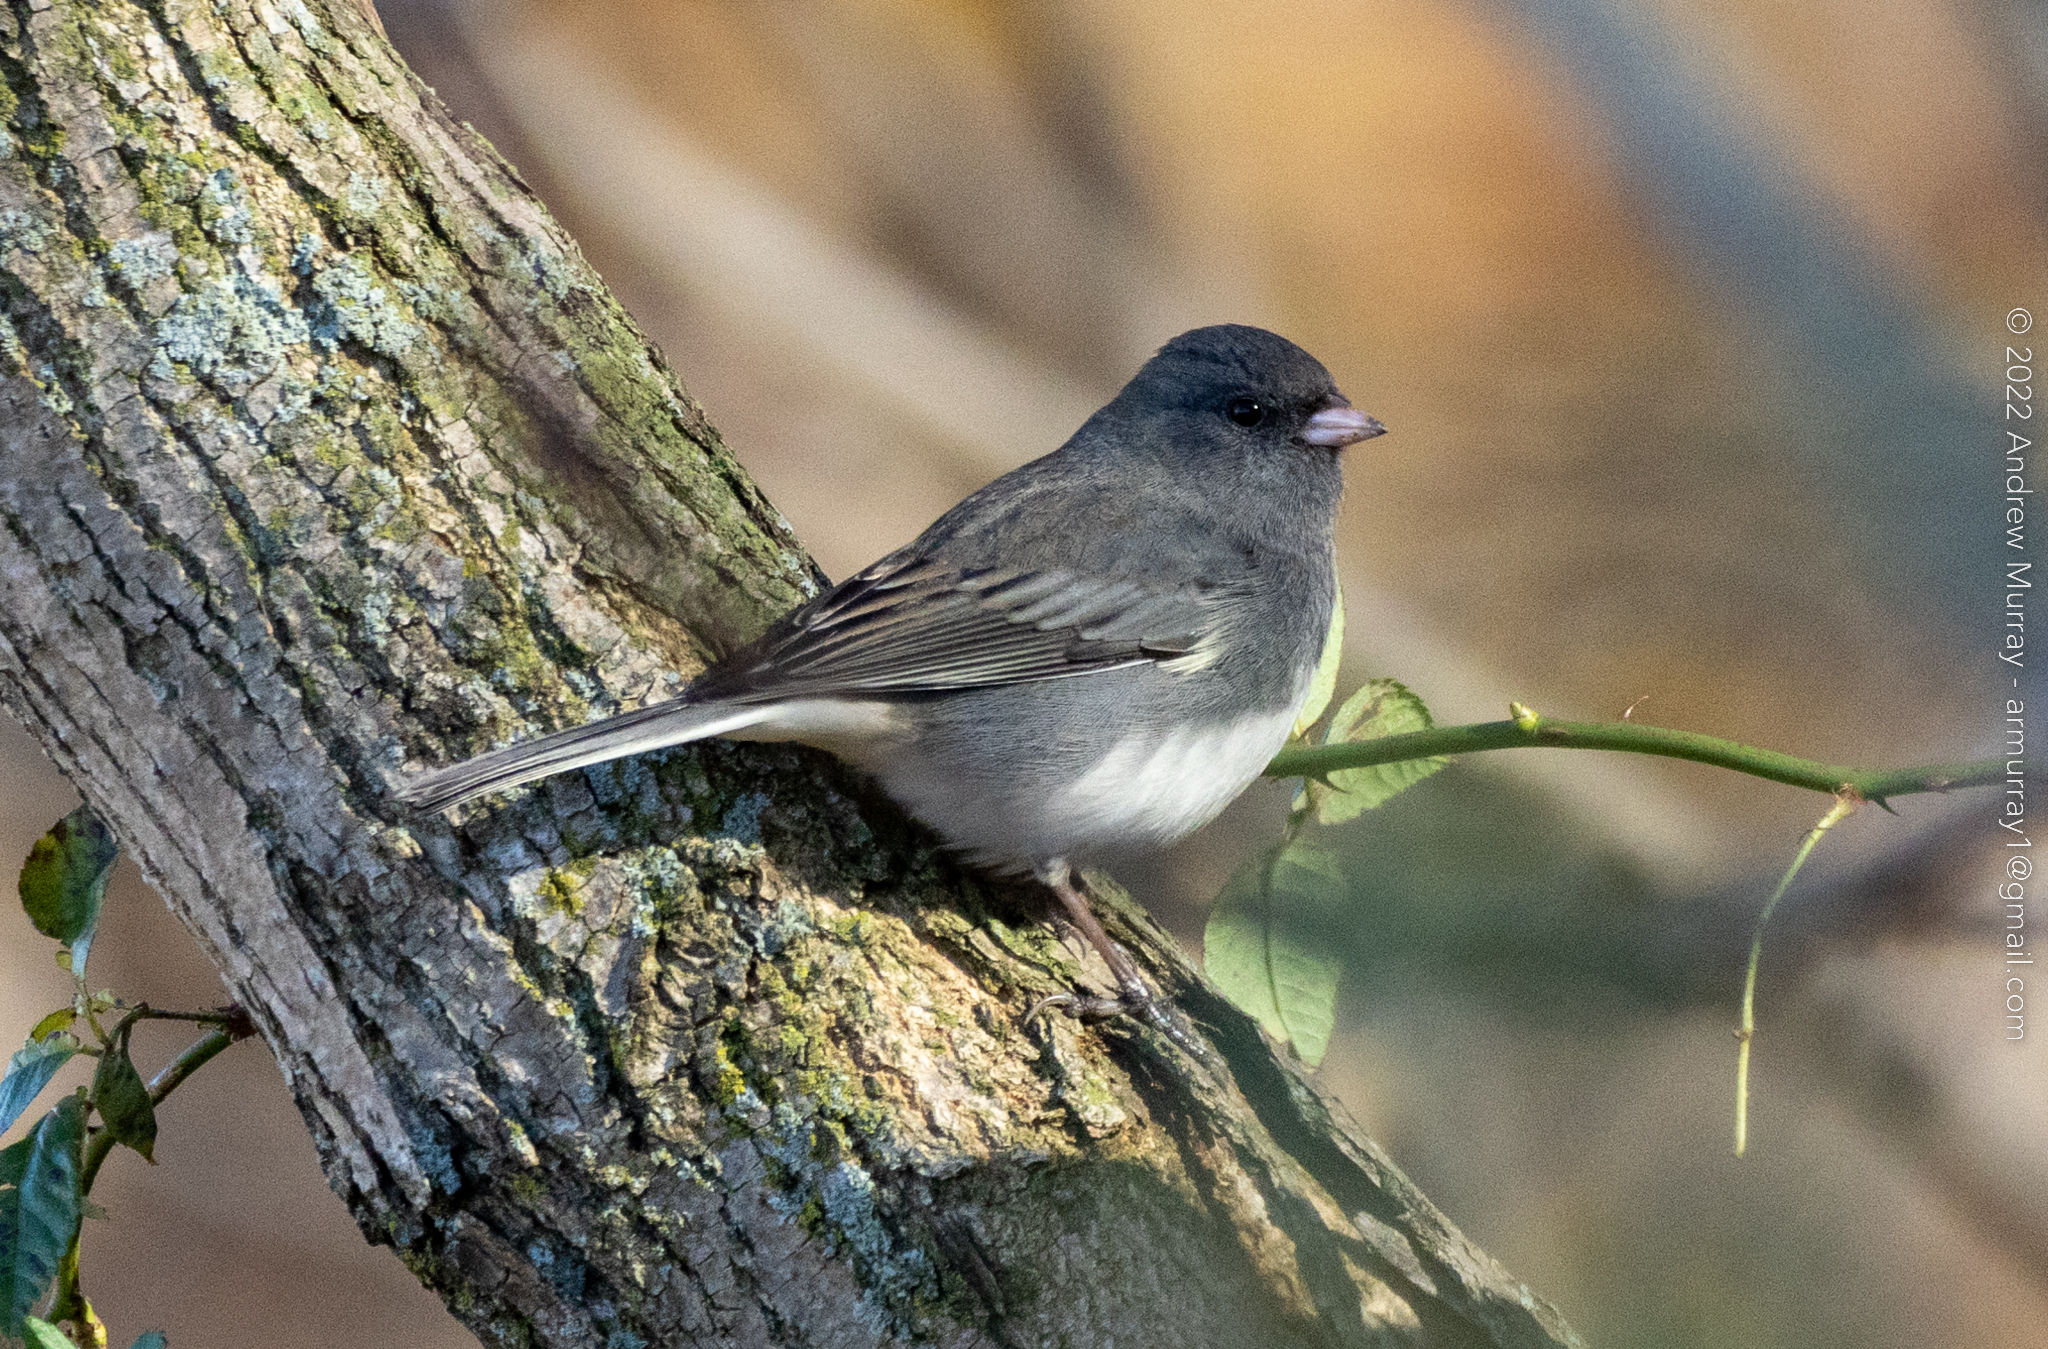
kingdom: Animalia
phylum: Chordata
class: Aves
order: Passeriformes
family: Passerellidae
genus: Junco
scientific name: Junco hyemalis
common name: Dark-eyed junco
